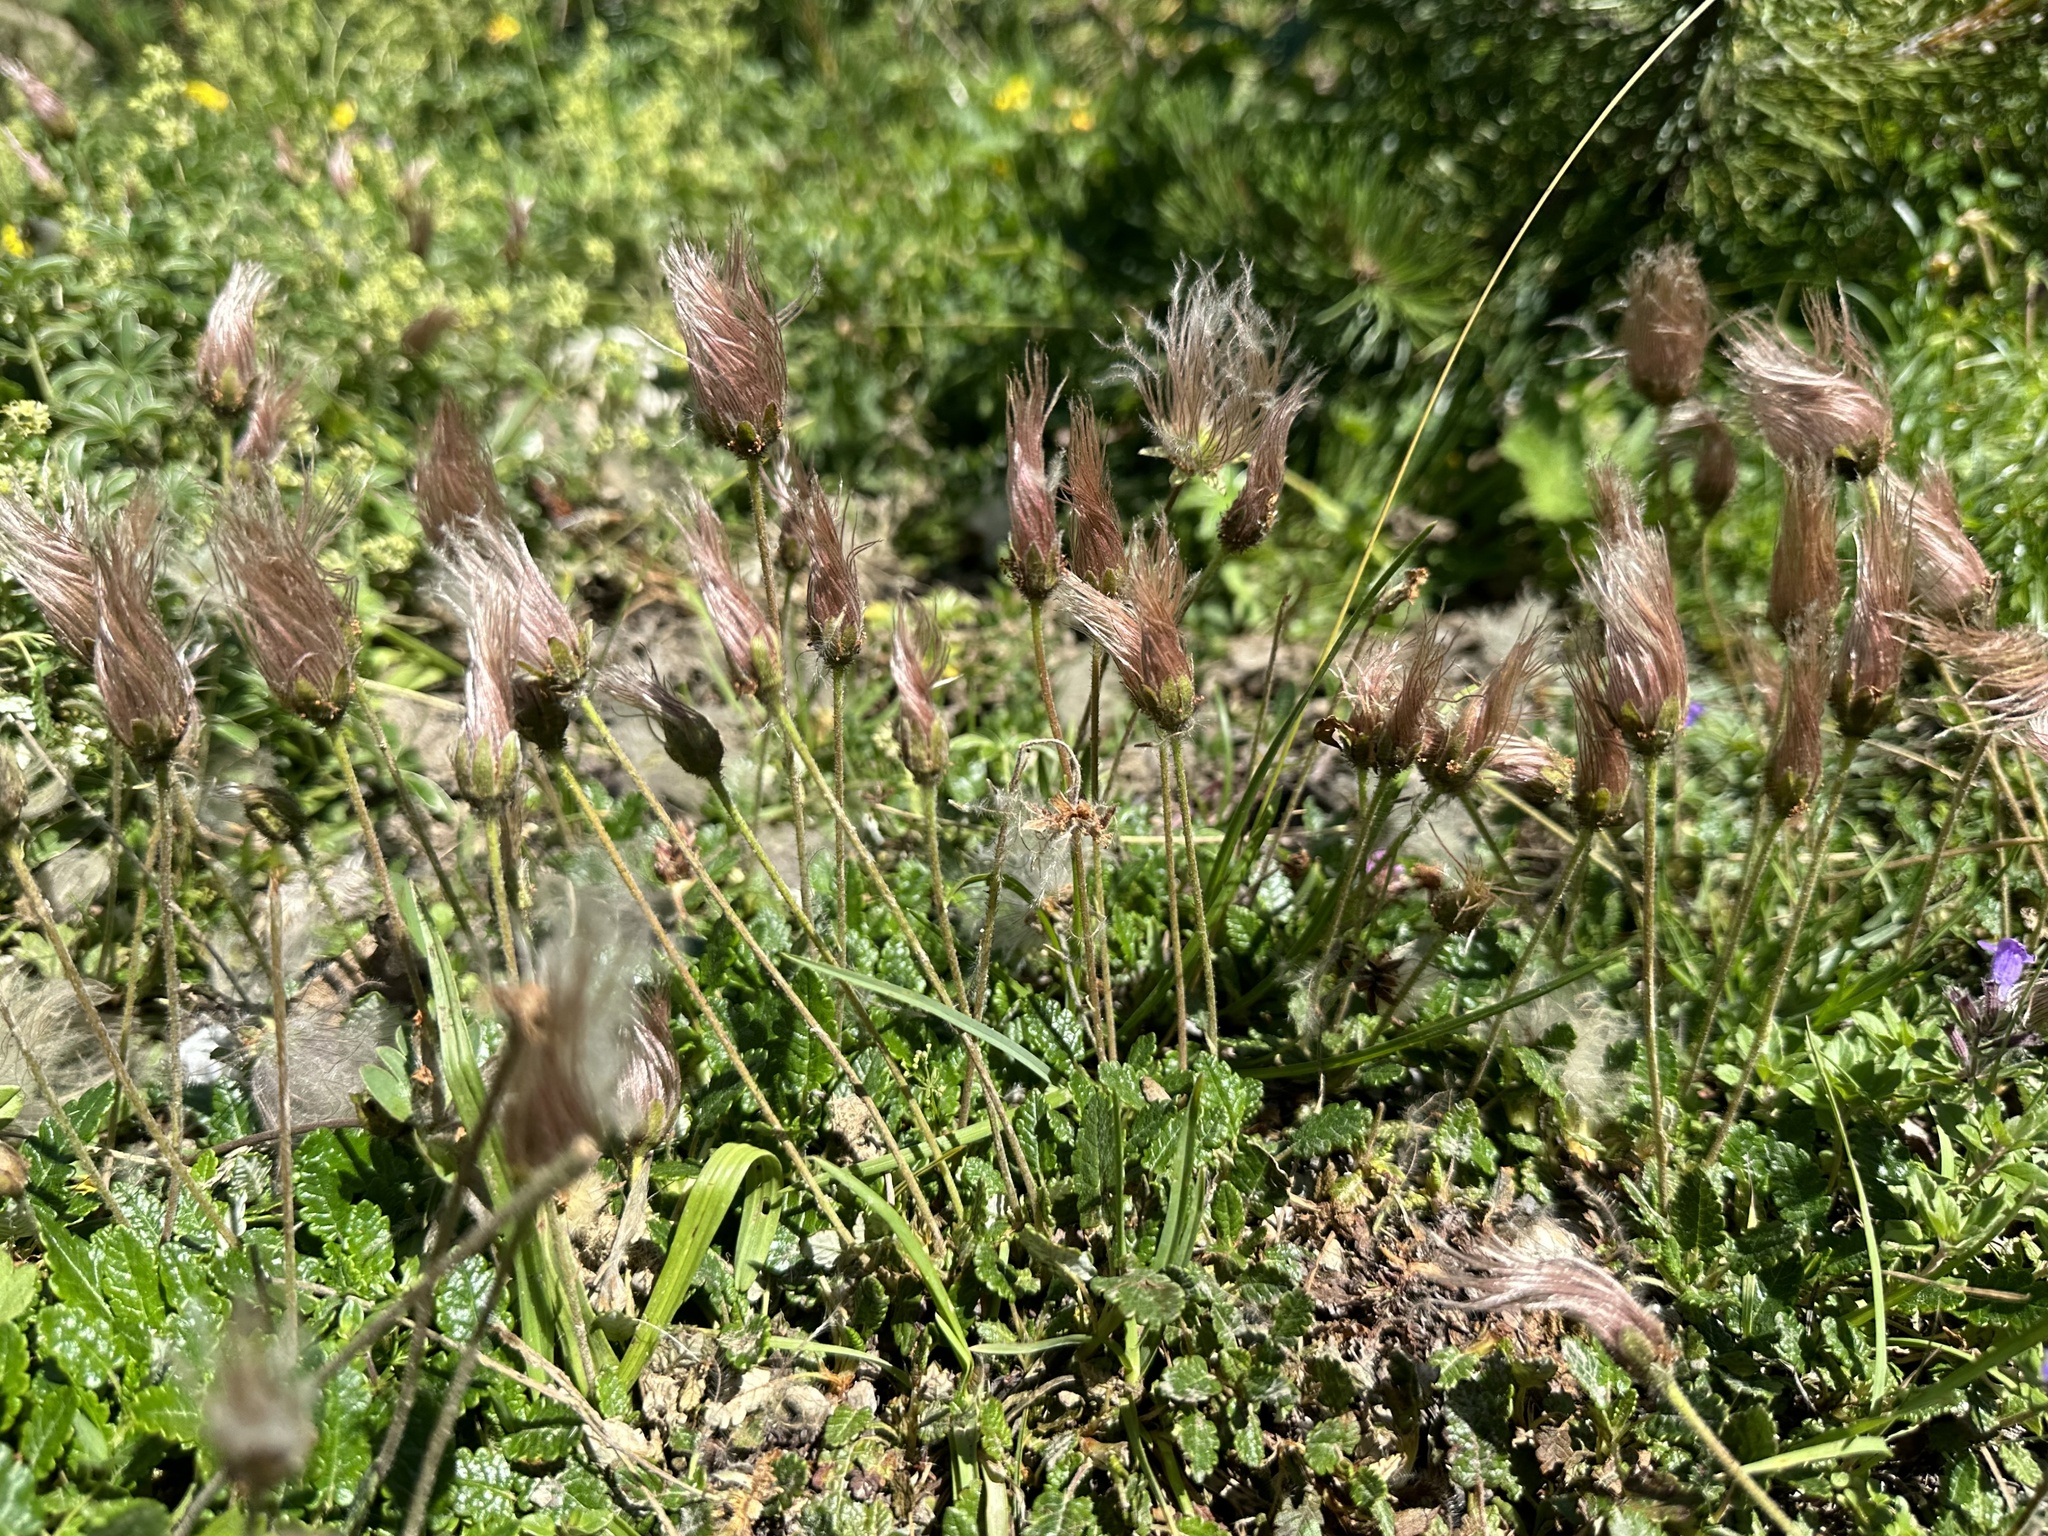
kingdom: Plantae
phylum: Tracheophyta
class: Magnoliopsida
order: Rosales
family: Rosaceae
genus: Dryas
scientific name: Dryas octopetala
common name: Eight-petal mountain-avens
